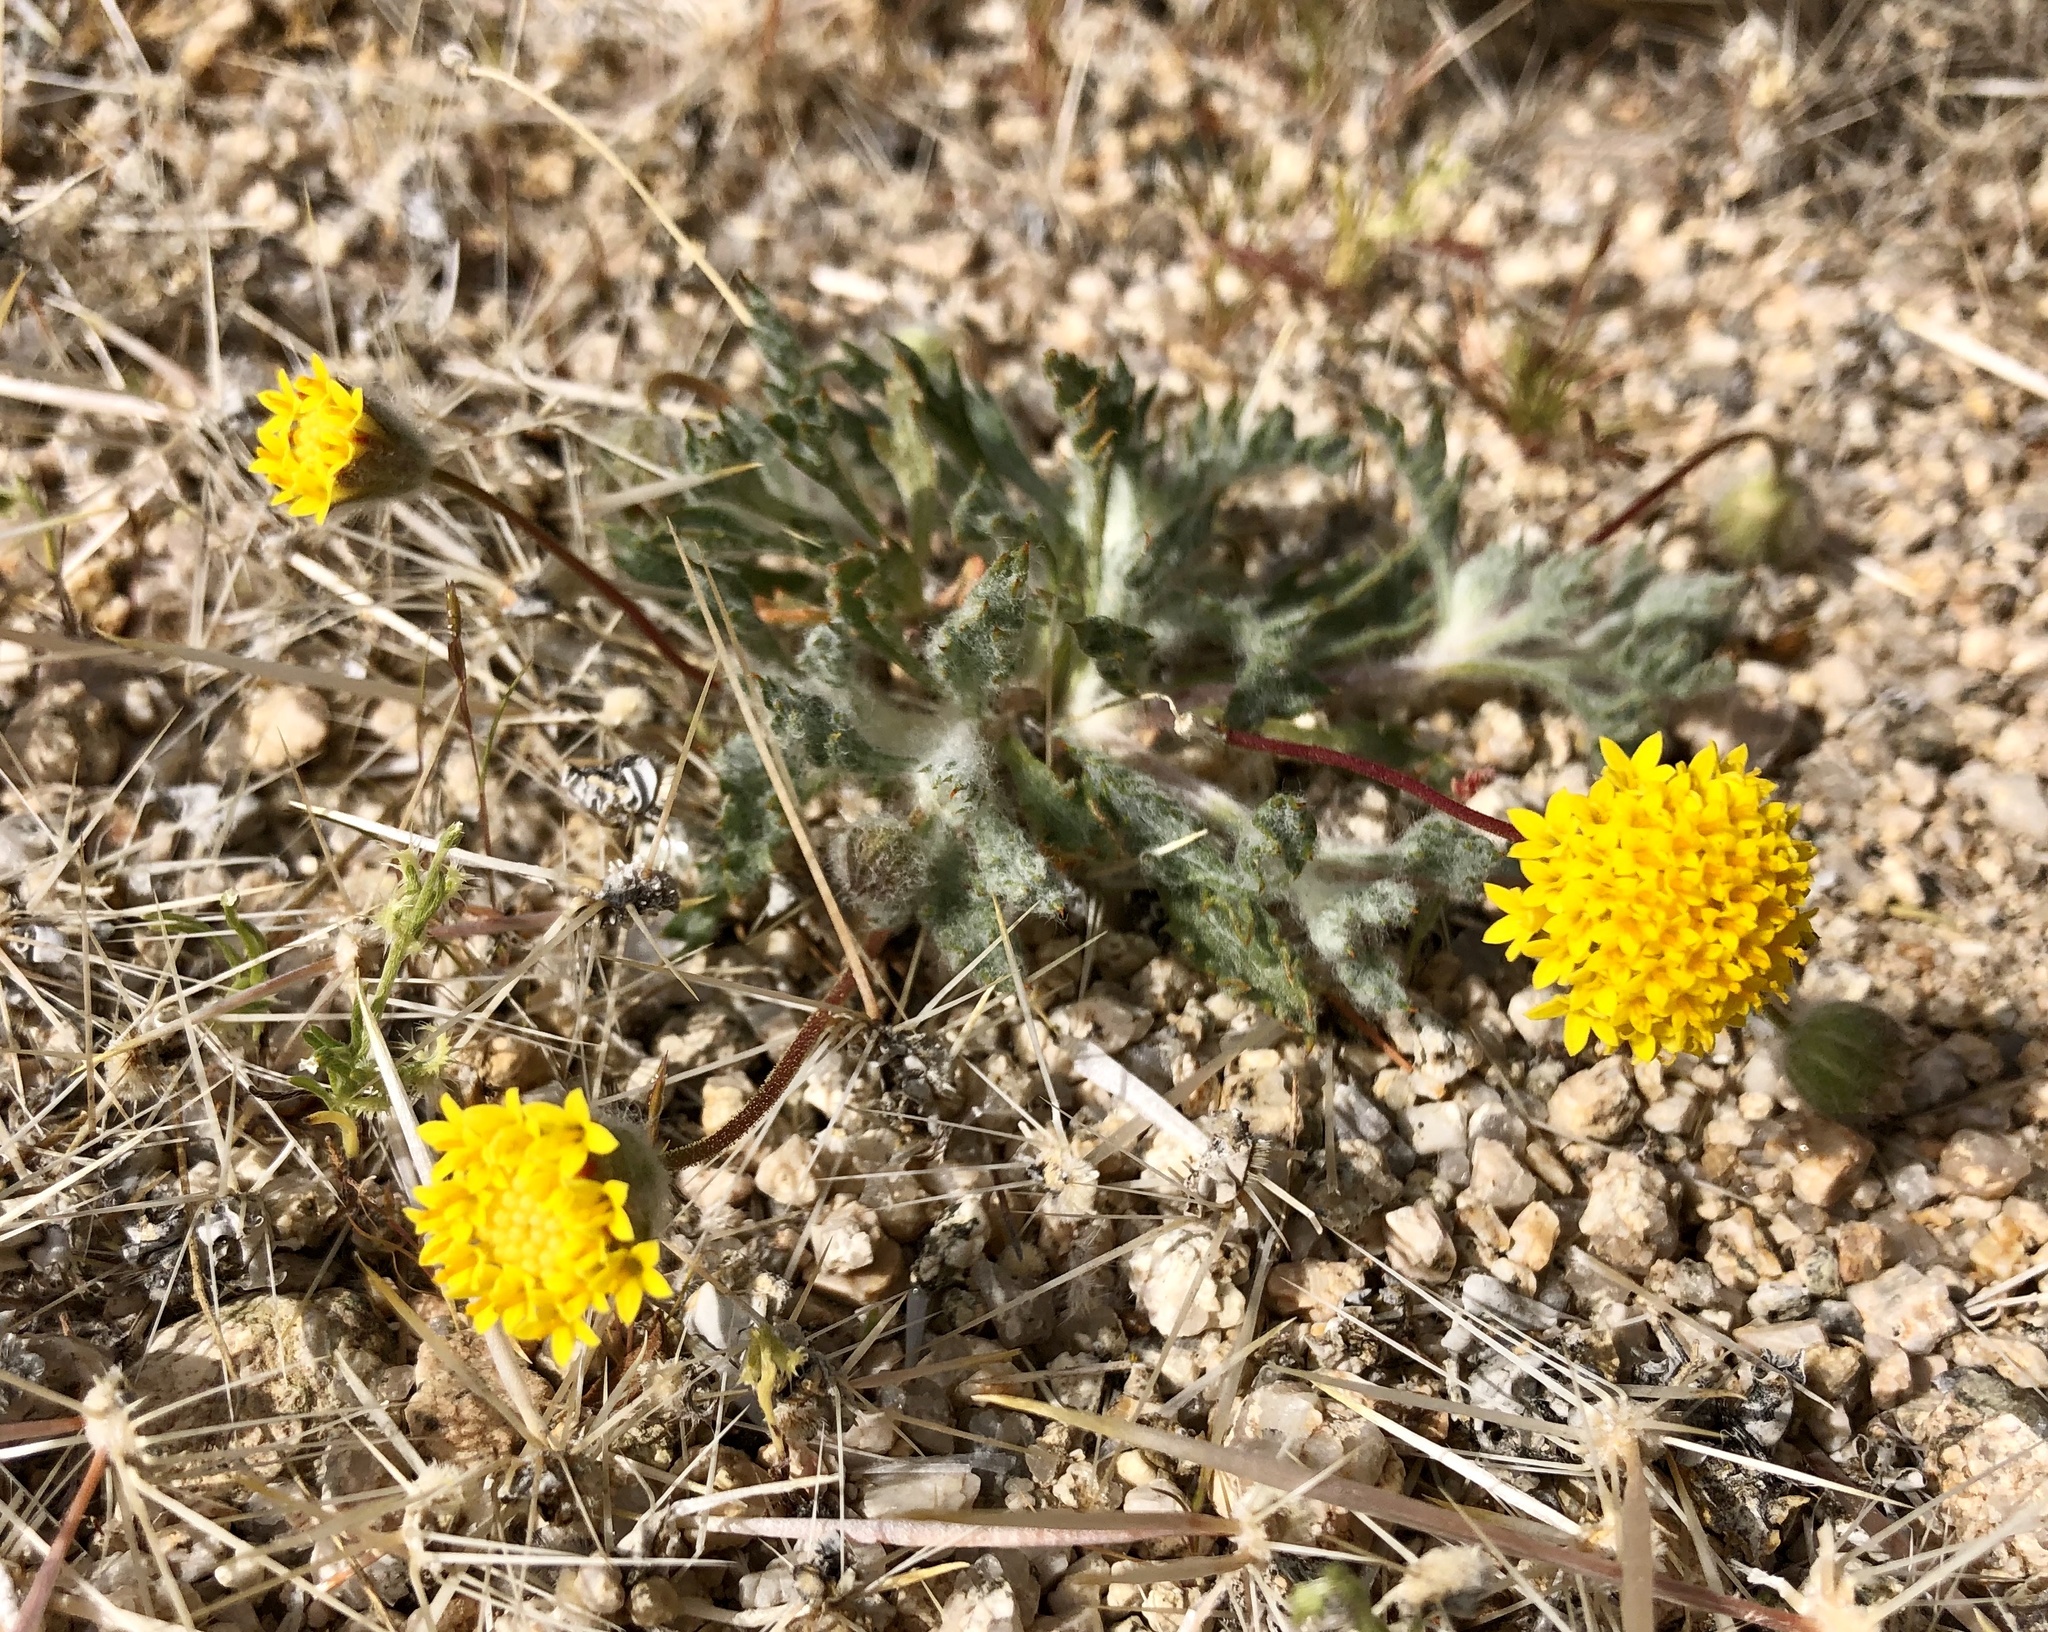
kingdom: Plantae
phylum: Tracheophyta
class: Magnoliopsida
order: Asterales
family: Asteraceae
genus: Trichoptilium
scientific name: Trichoptilium incisum
